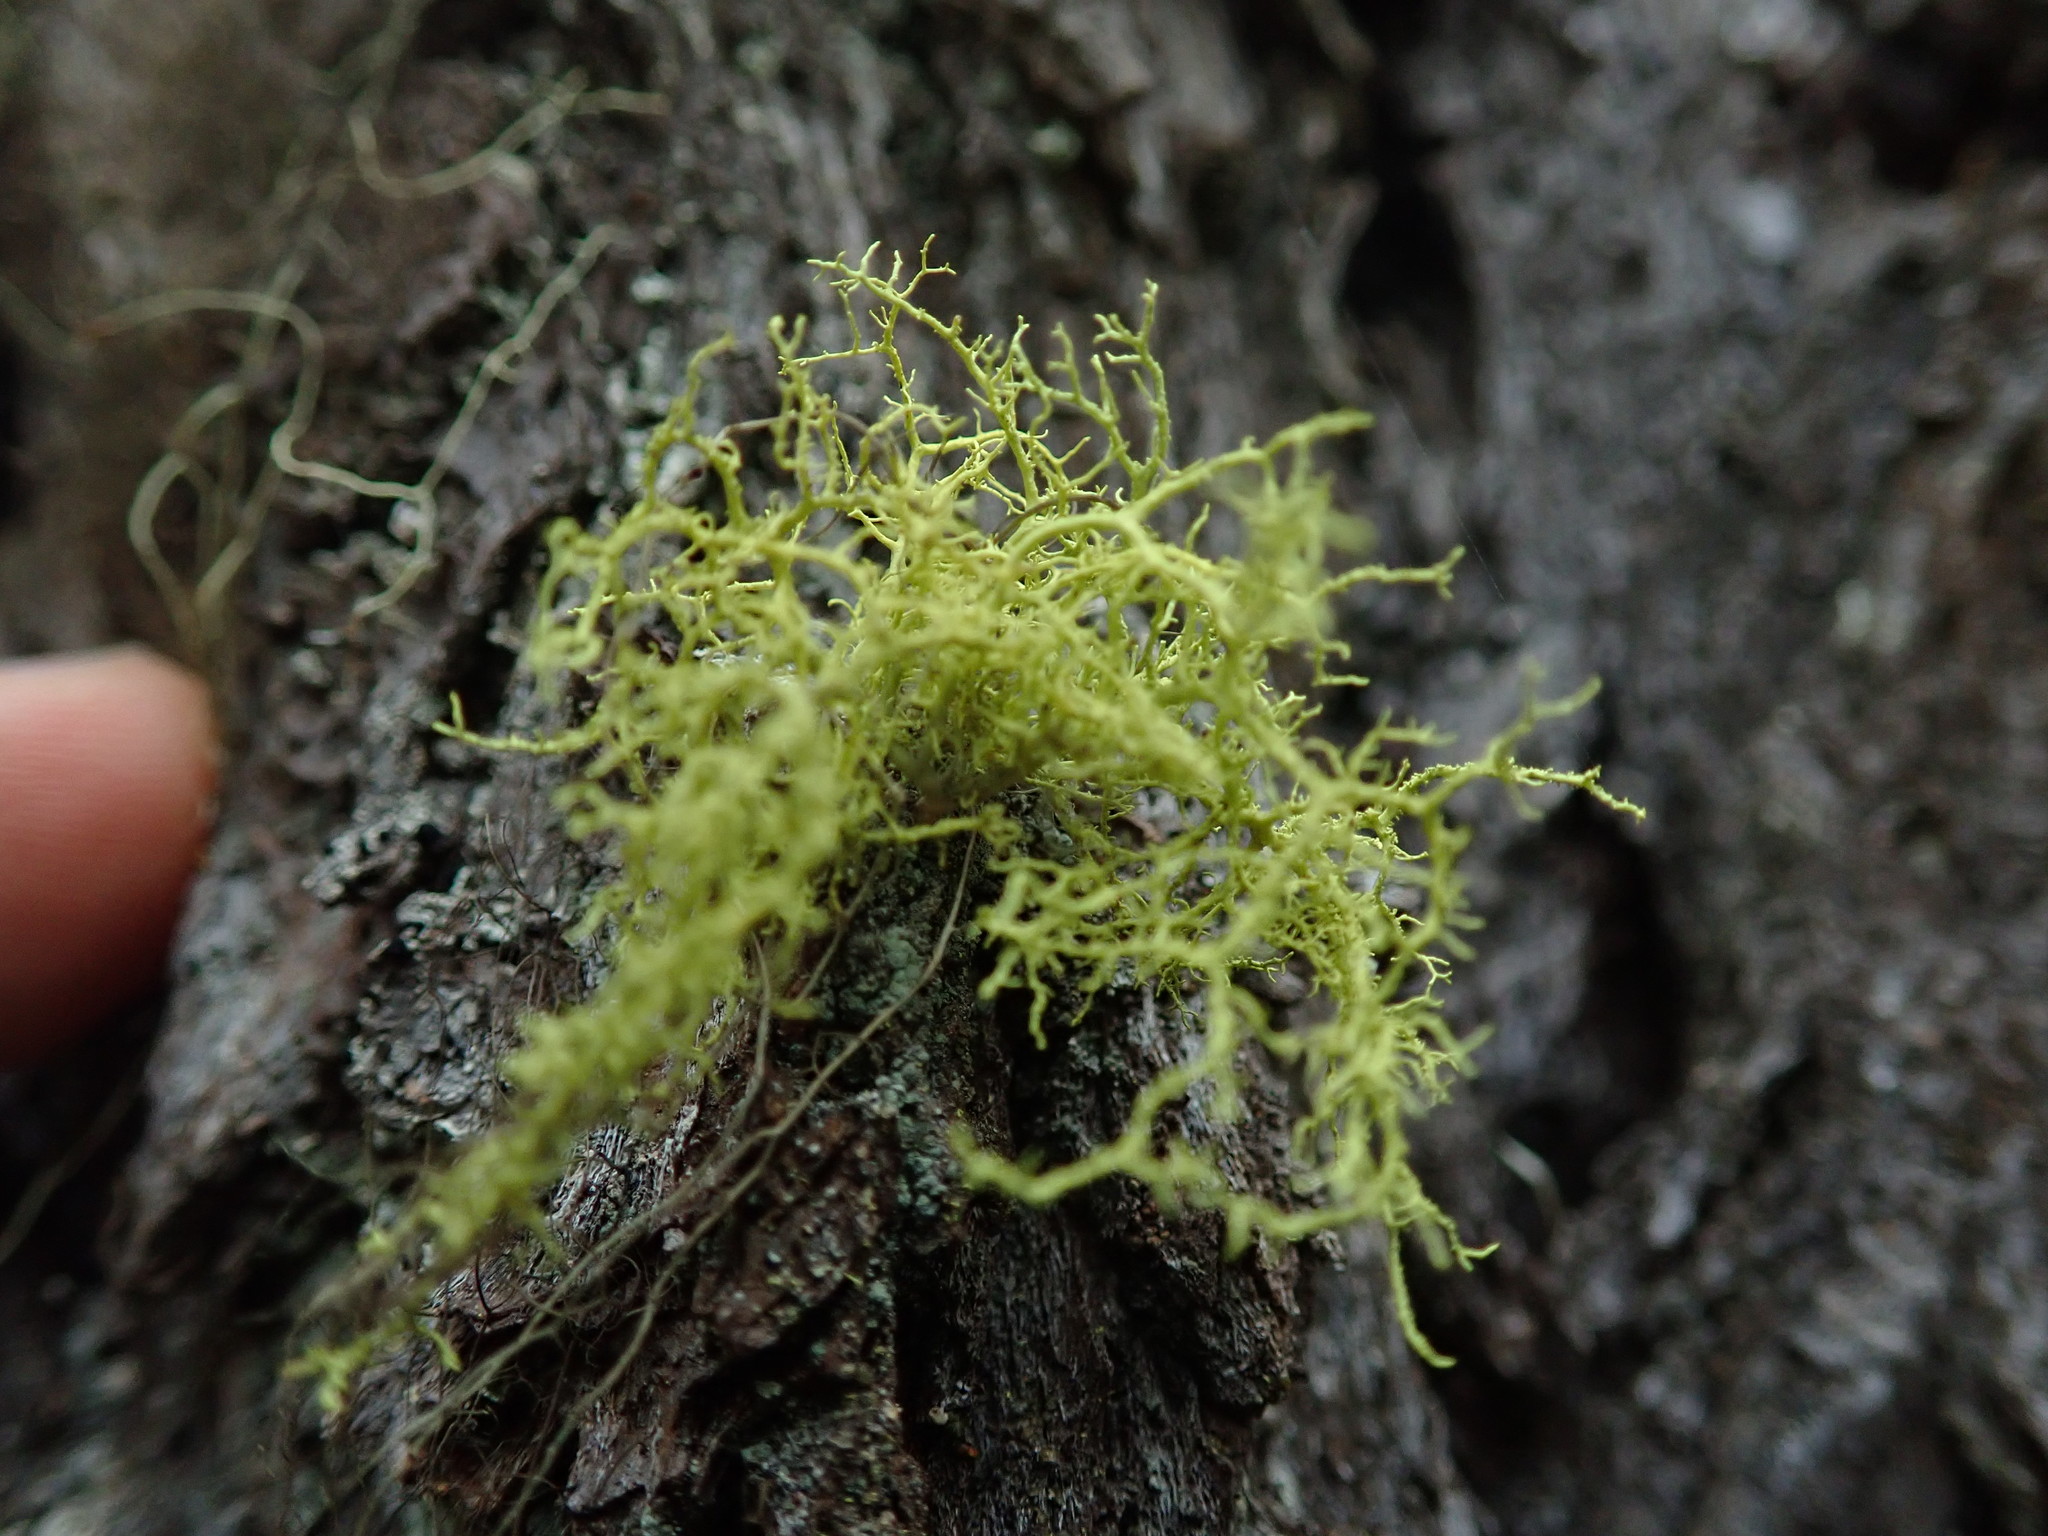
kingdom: Fungi
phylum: Ascomycota
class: Lecanoromycetes
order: Lecanorales
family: Parmeliaceae
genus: Letharia
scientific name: Letharia vulpina
